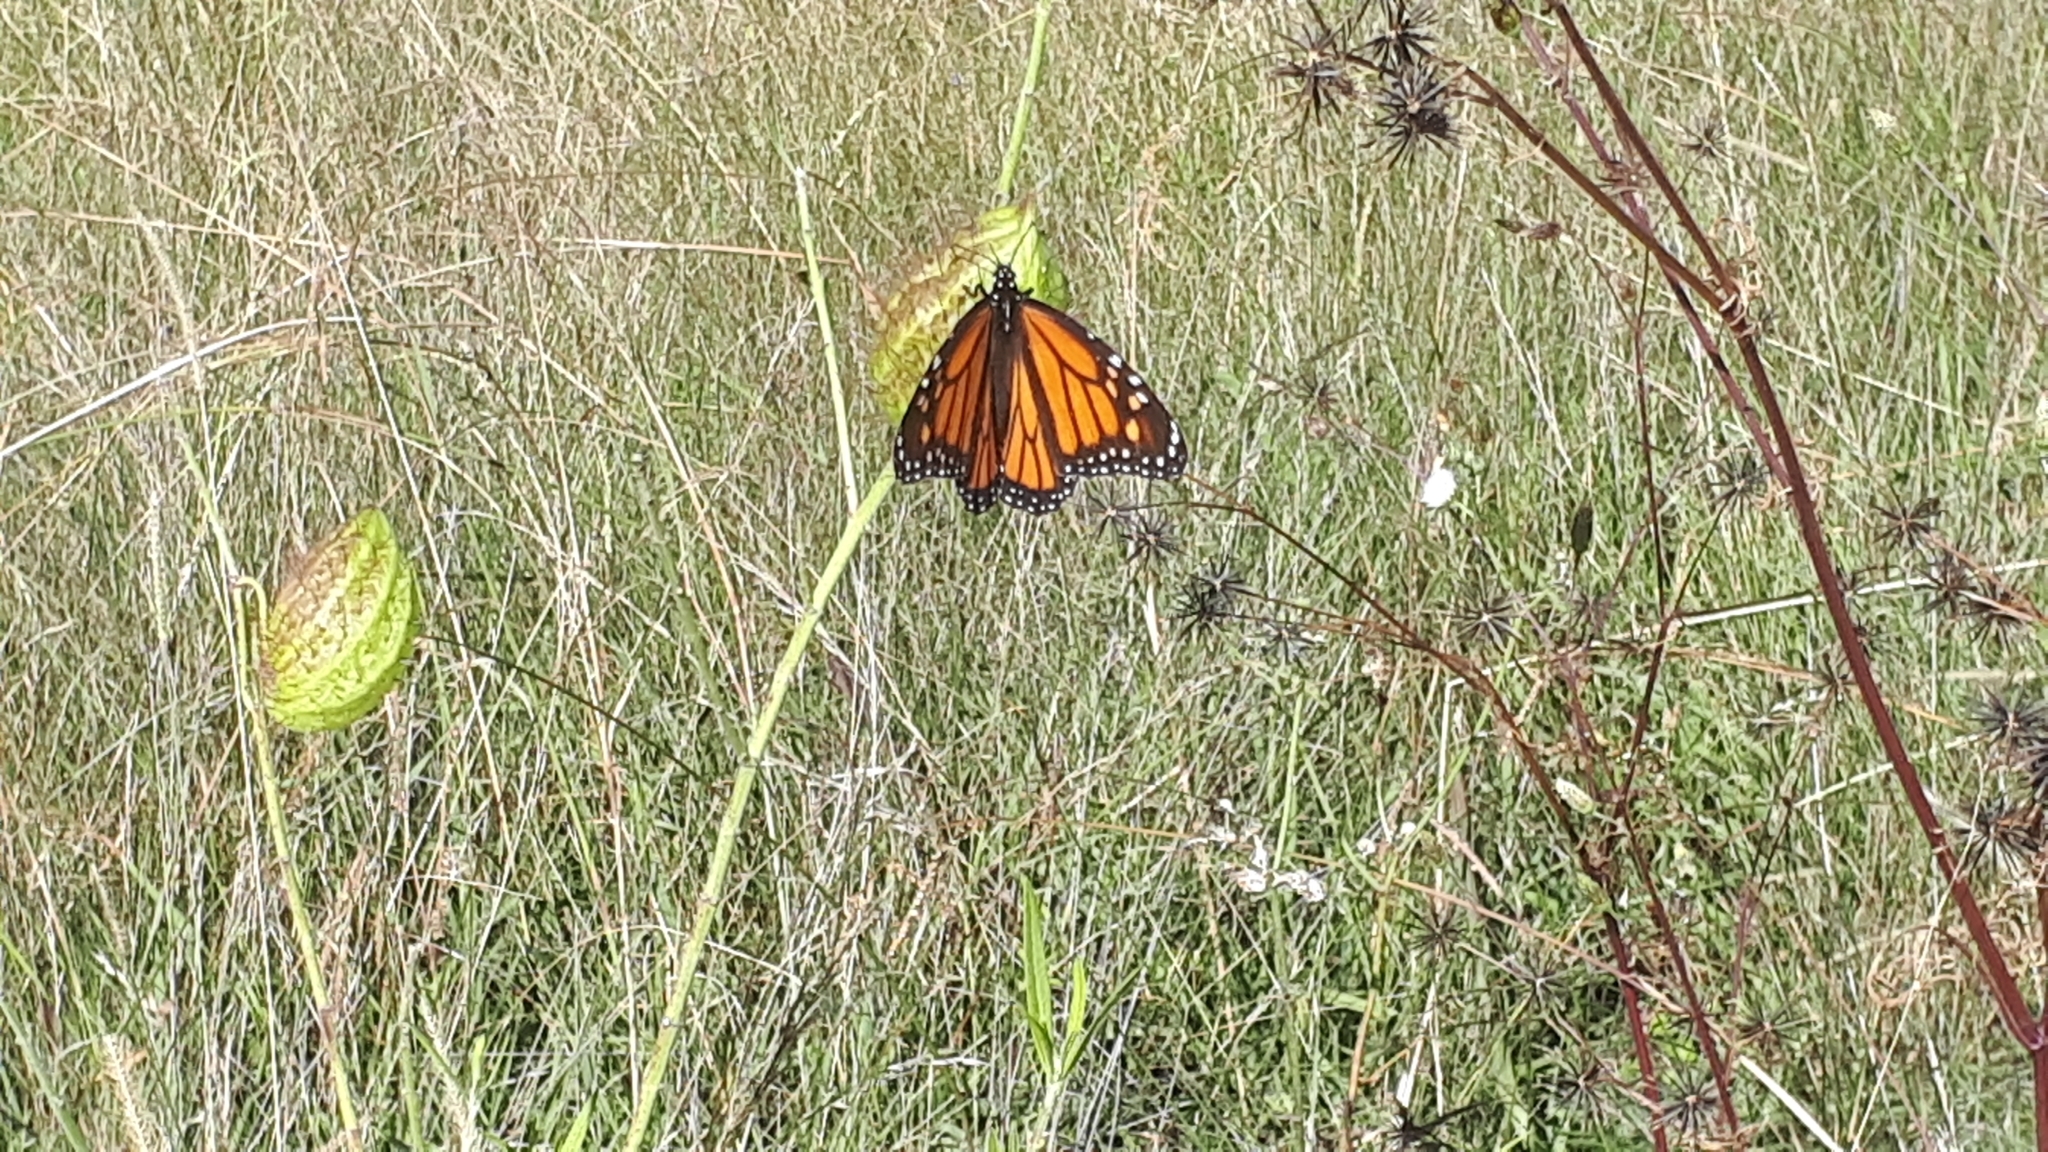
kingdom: Animalia
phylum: Arthropoda
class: Insecta
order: Lepidoptera
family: Nymphalidae
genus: Danaus
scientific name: Danaus plexippus
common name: Monarch
